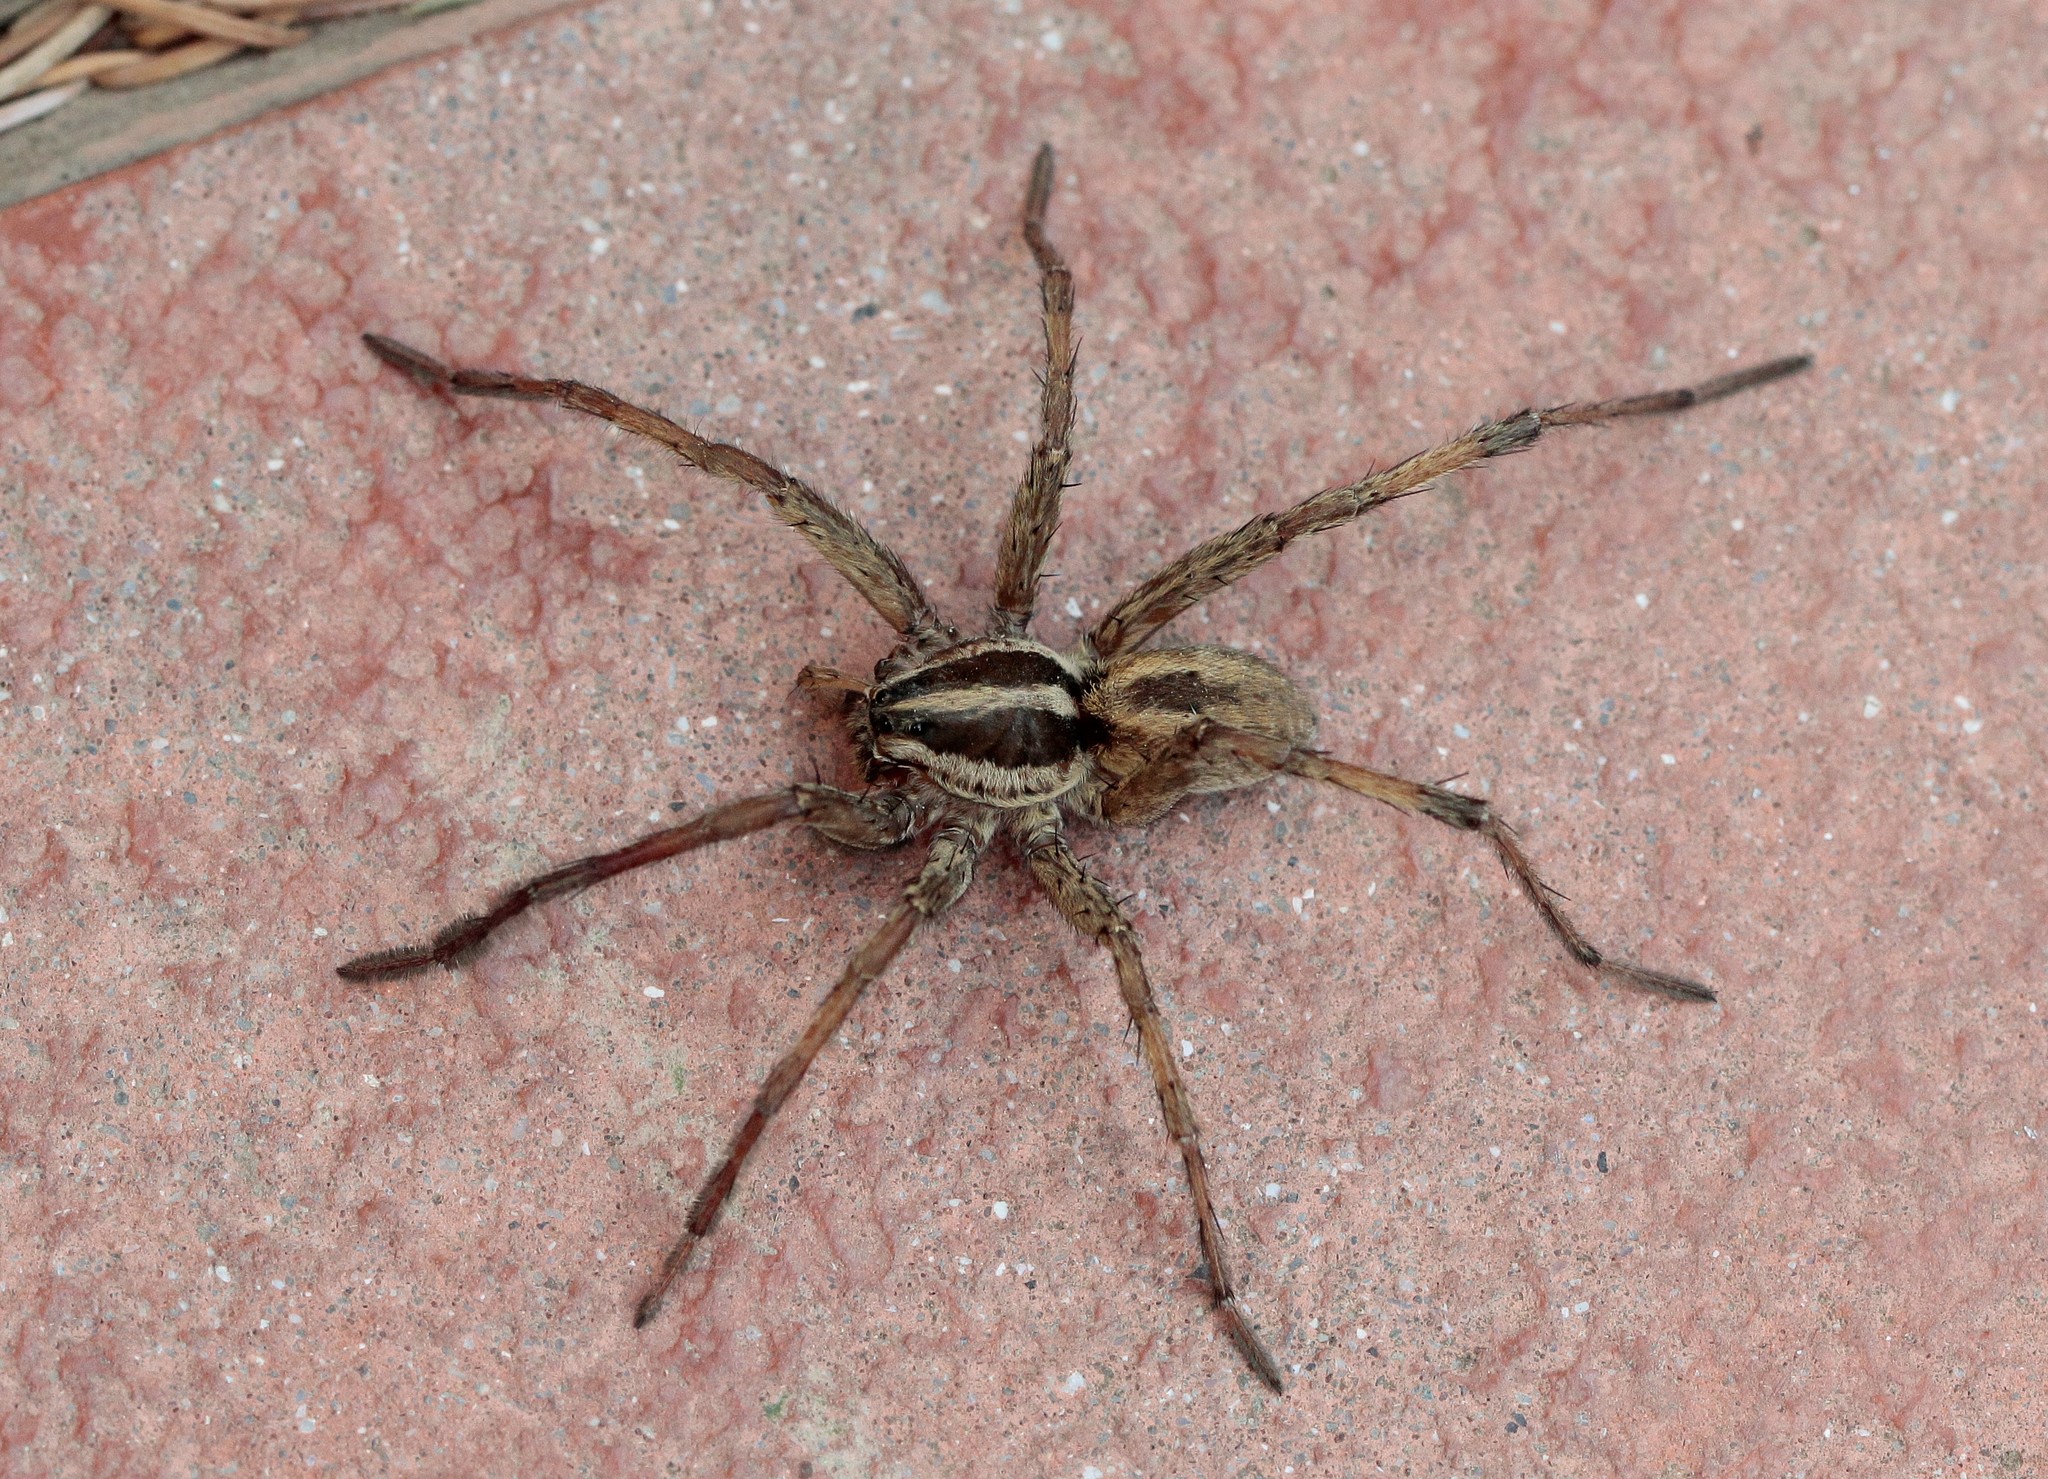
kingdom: Animalia
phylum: Arthropoda
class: Arachnida
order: Araneae
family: Lycosidae
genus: Hogna
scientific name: Hogna radiata
